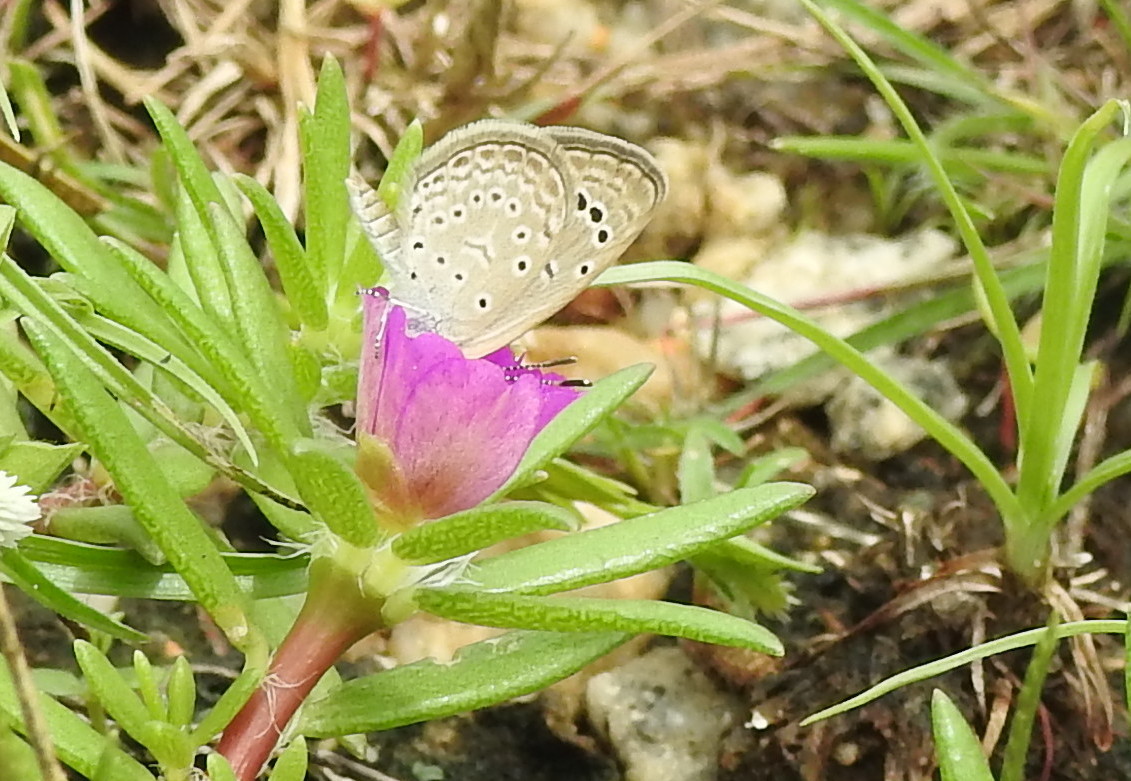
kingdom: Animalia
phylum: Arthropoda
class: Insecta
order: Lepidoptera
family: Lycaenidae
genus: Zizeeria
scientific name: Zizeeria karsandra
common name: Dark grass blue
